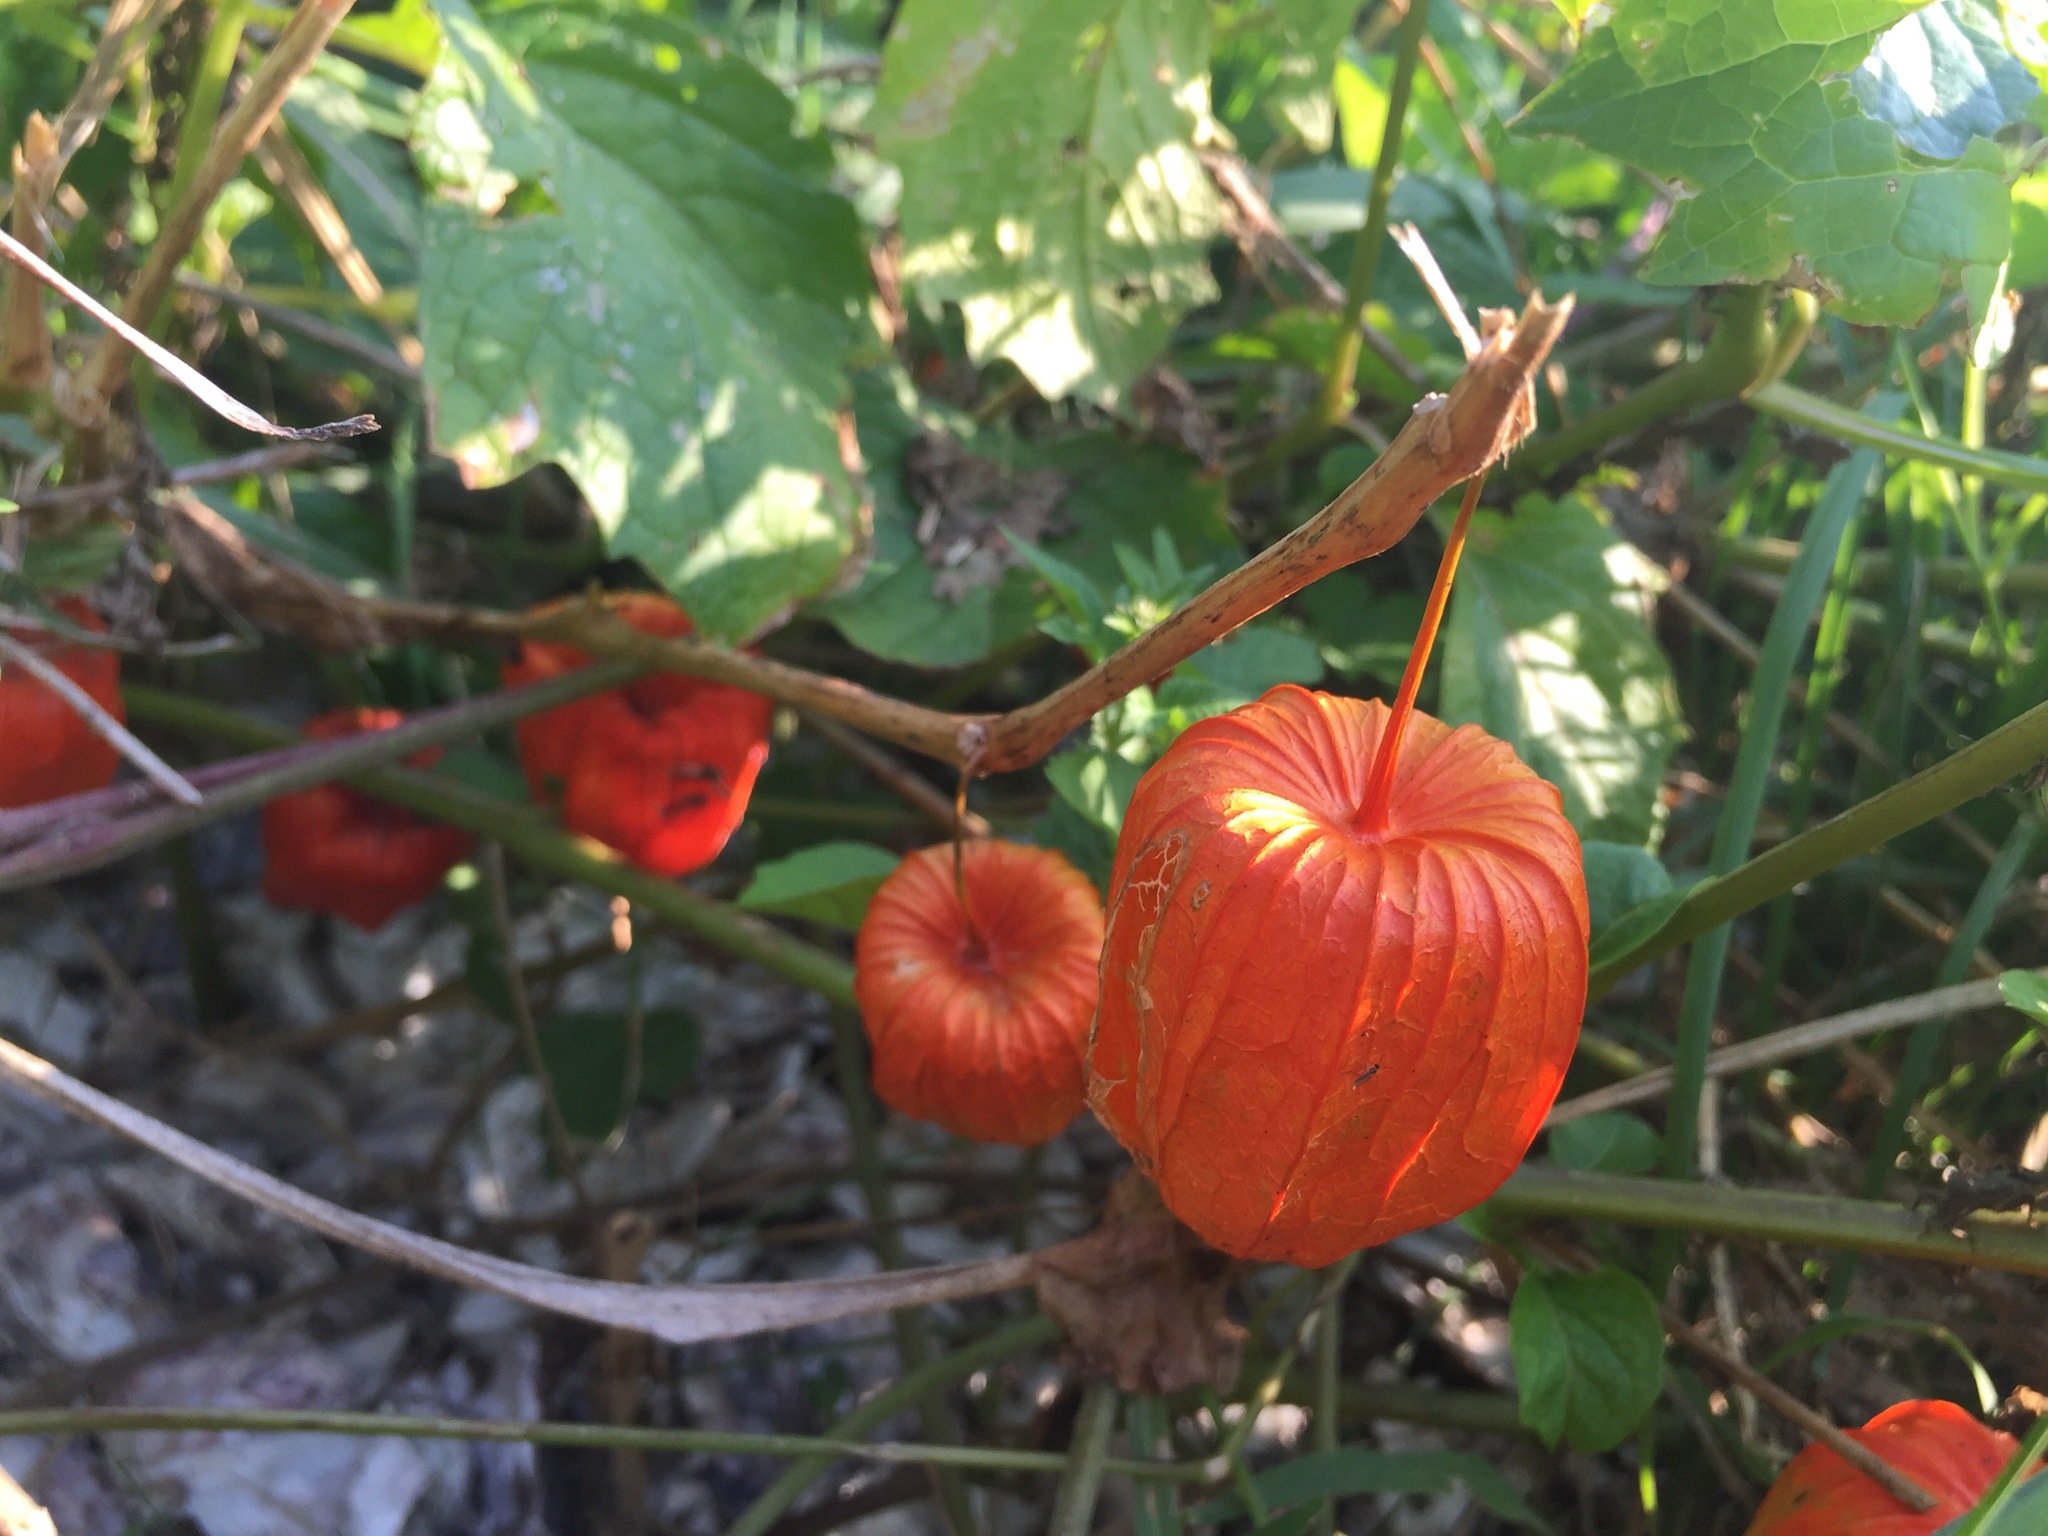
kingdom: Plantae
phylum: Tracheophyta
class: Magnoliopsida
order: Solanales
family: Solanaceae
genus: Alkekengi
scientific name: Alkekengi officinarum
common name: Japanese-lantern
